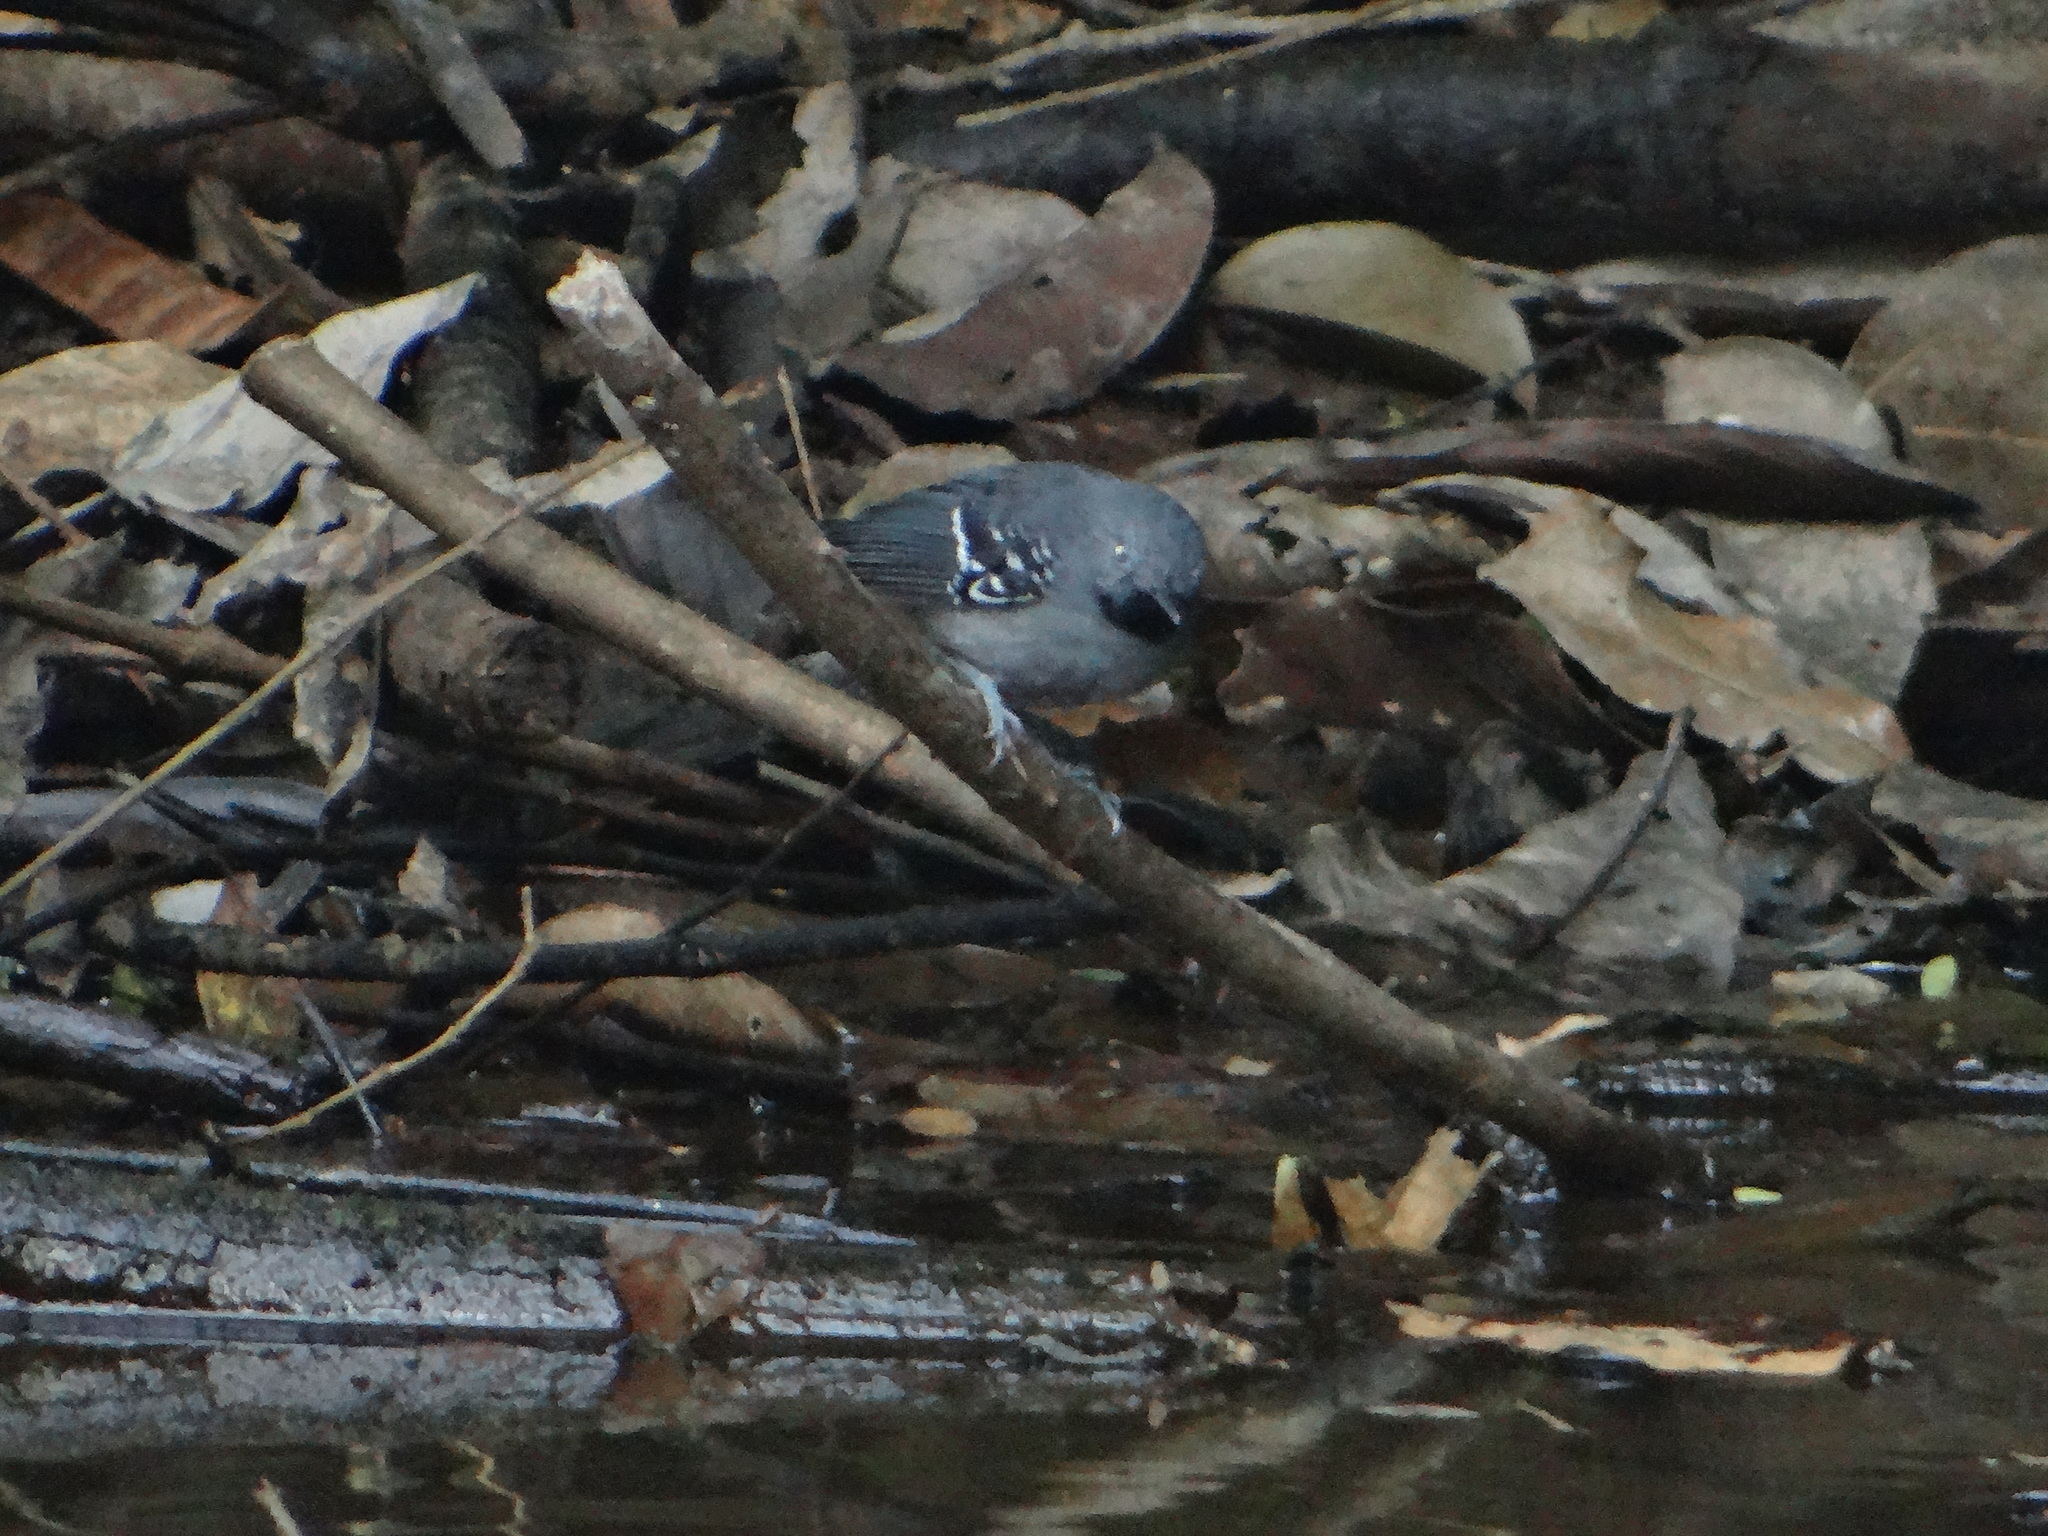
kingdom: Animalia
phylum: Chordata
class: Aves
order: Passeriformes
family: Thamnophilidae
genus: Hypocnemoides
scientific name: Hypocnemoides maculicauda
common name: Band-tailed antbird
